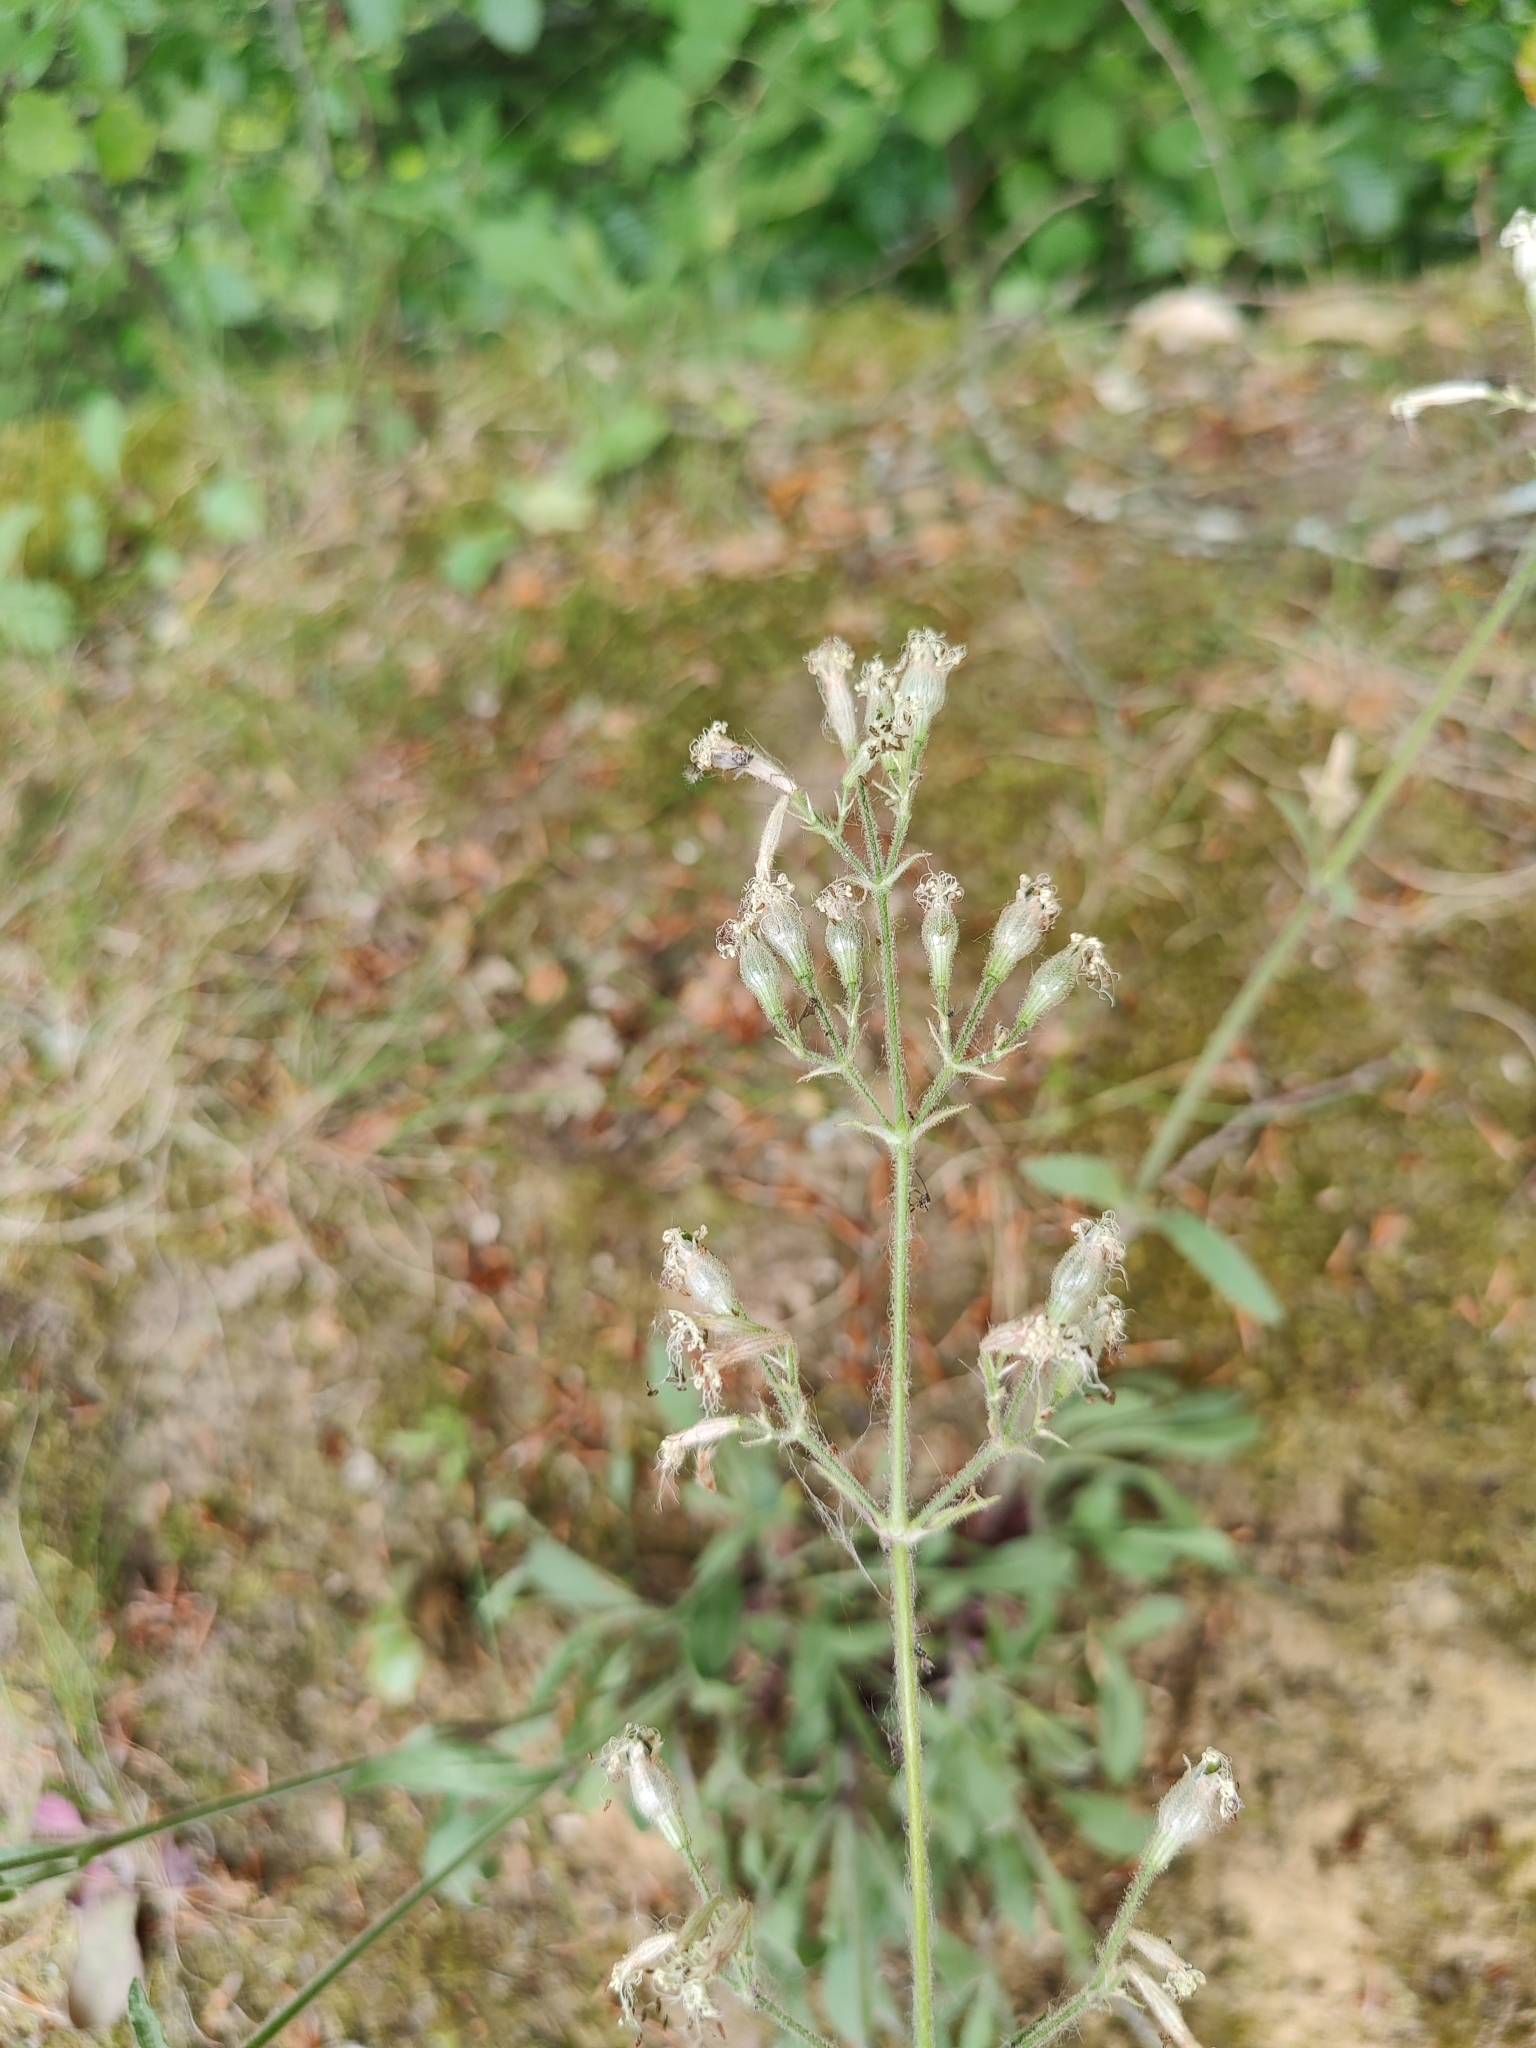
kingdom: Plantae
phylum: Tracheophyta
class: Magnoliopsida
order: Caryophyllales
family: Caryophyllaceae
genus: Silene
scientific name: Silene nutans
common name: Nottingham catchfly
